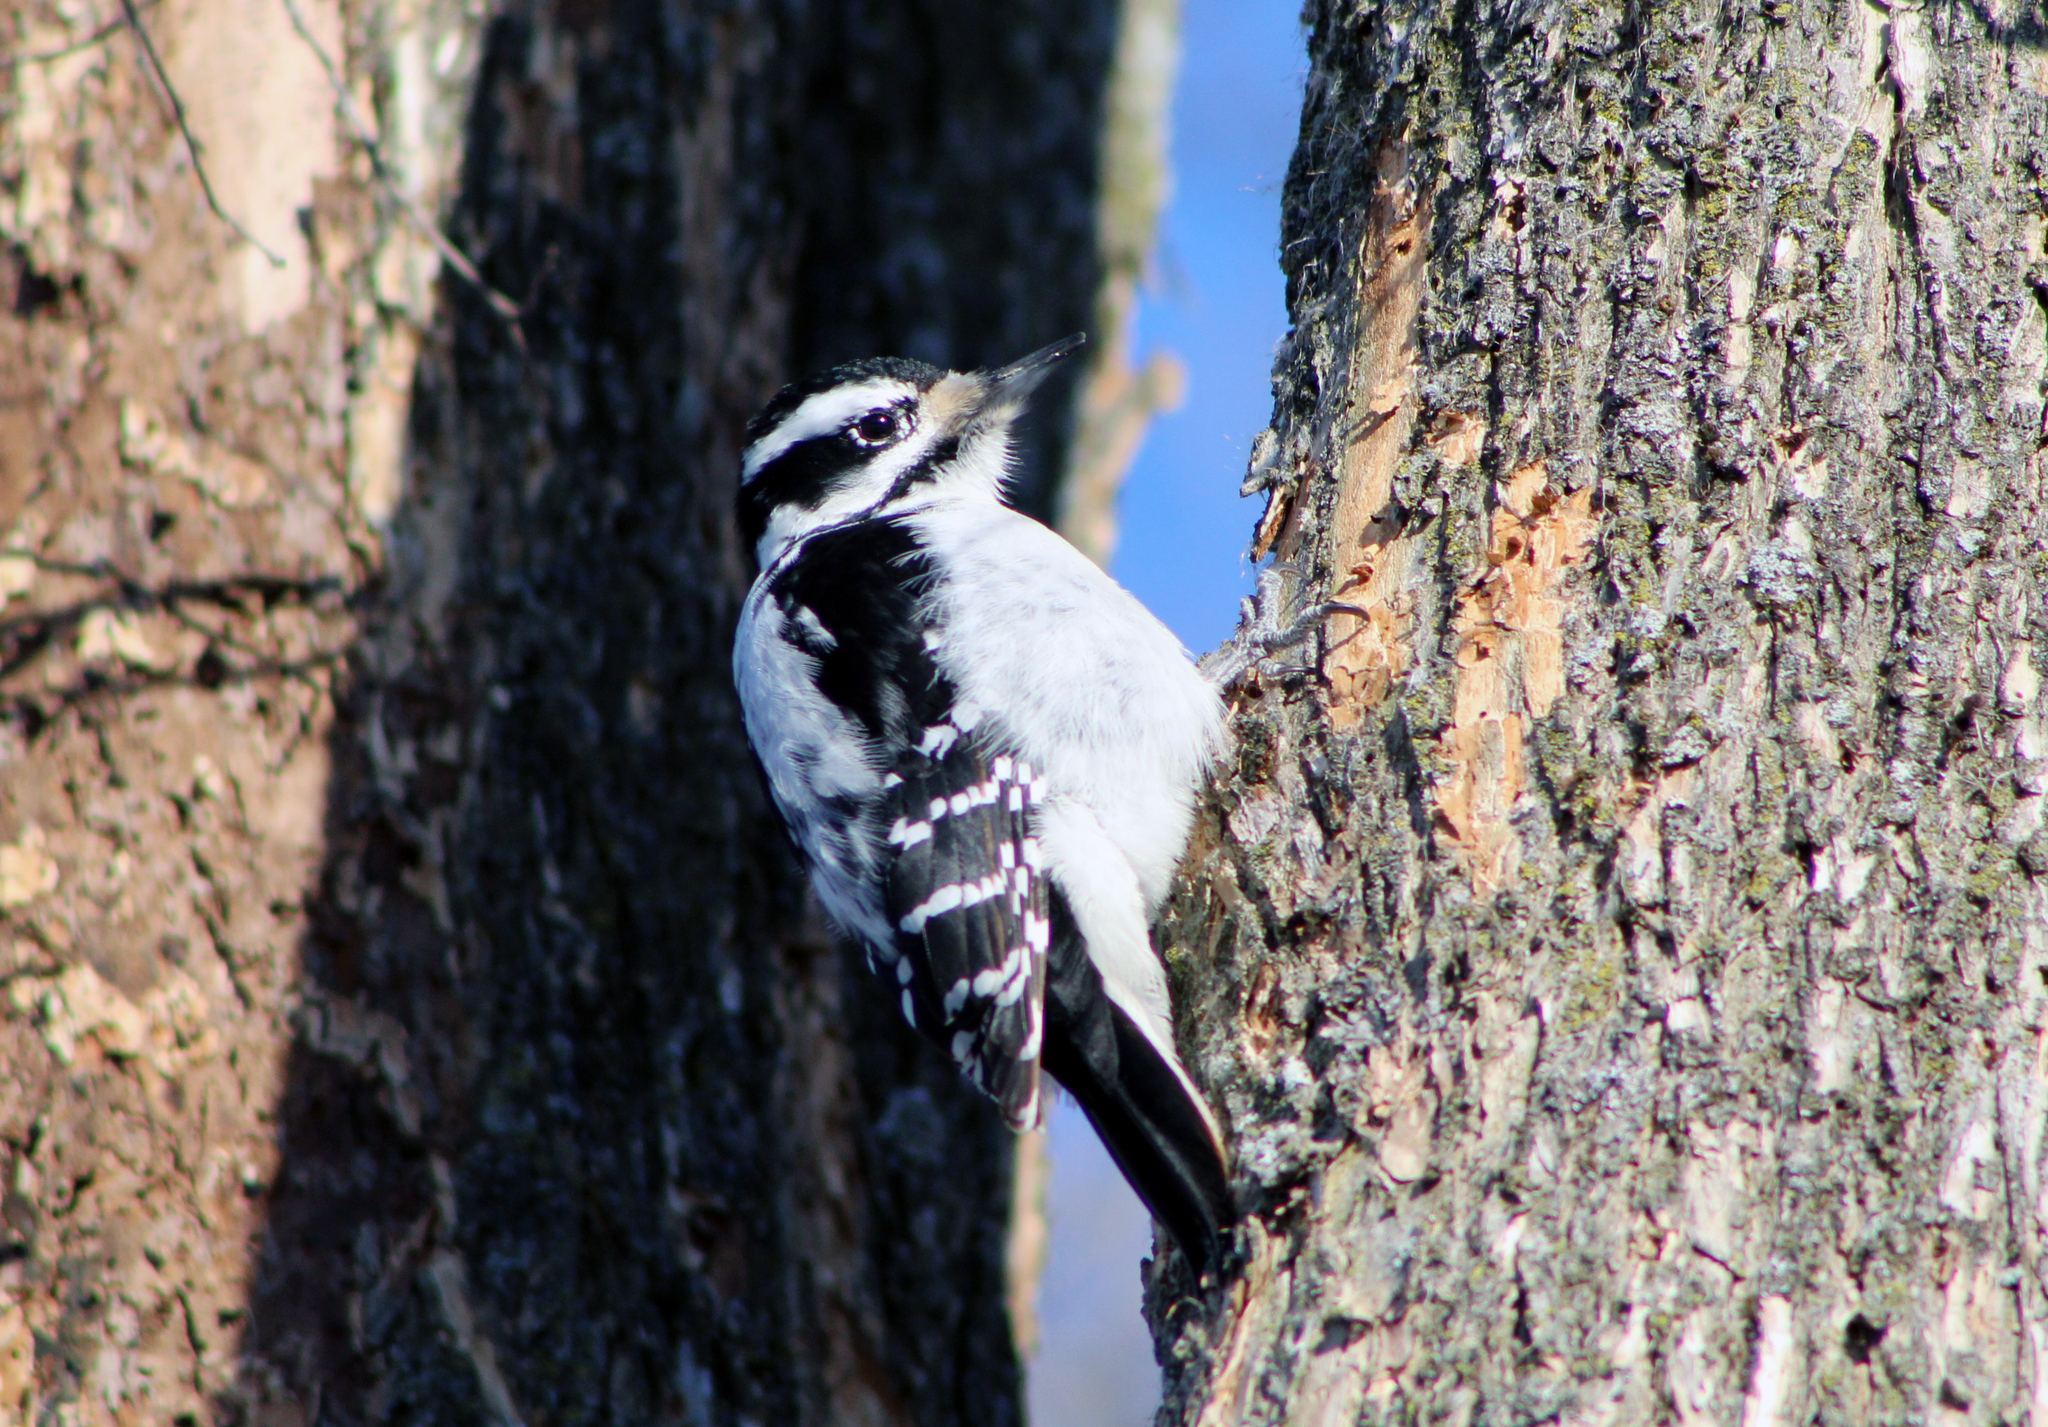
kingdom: Animalia
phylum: Chordata
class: Aves
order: Piciformes
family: Picidae
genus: Leuconotopicus
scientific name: Leuconotopicus villosus
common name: Hairy woodpecker
